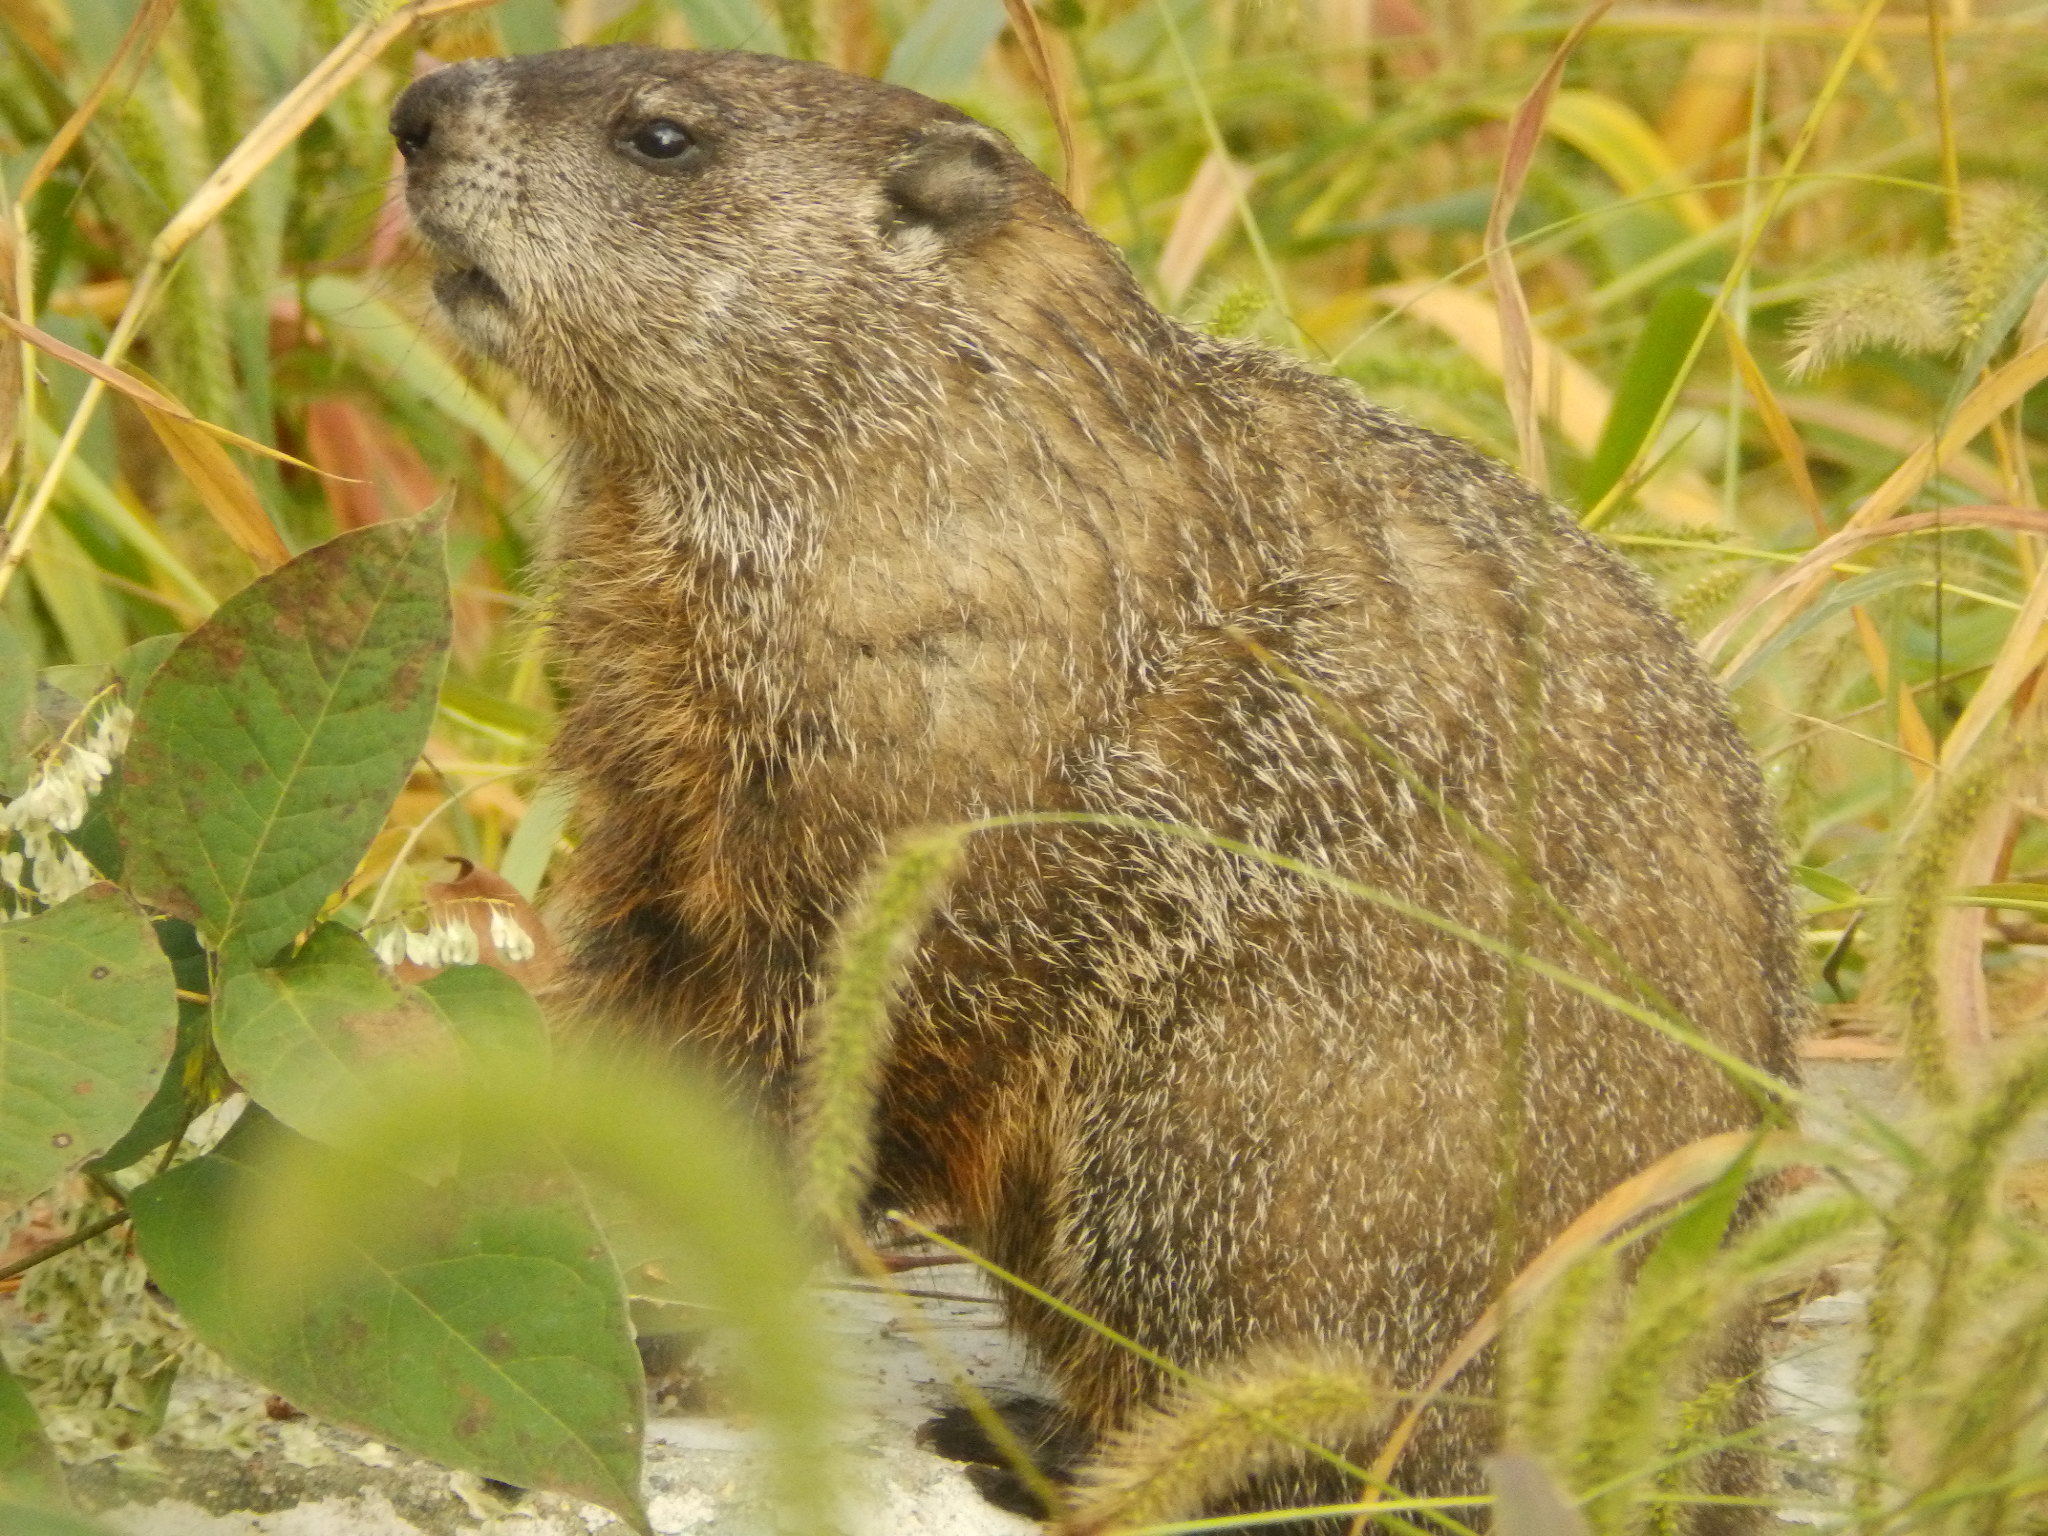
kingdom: Animalia
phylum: Chordata
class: Mammalia
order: Rodentia
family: Sciuridae
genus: Marmota
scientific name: Marmota monax
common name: Groundhog
